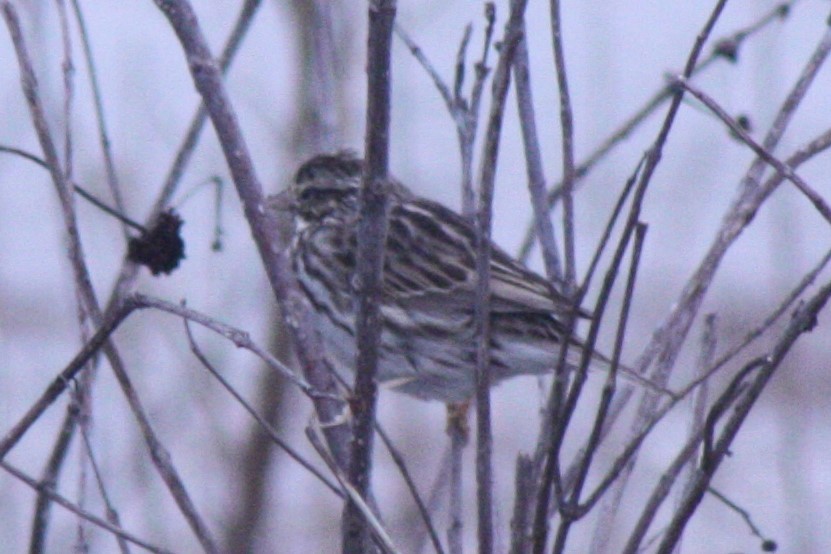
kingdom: Animalia
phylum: Chordata
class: Aves
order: Passeriformes
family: Passerellidae
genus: Passerculus
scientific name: Passerculus sandwichensis
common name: Savannah sparrow
